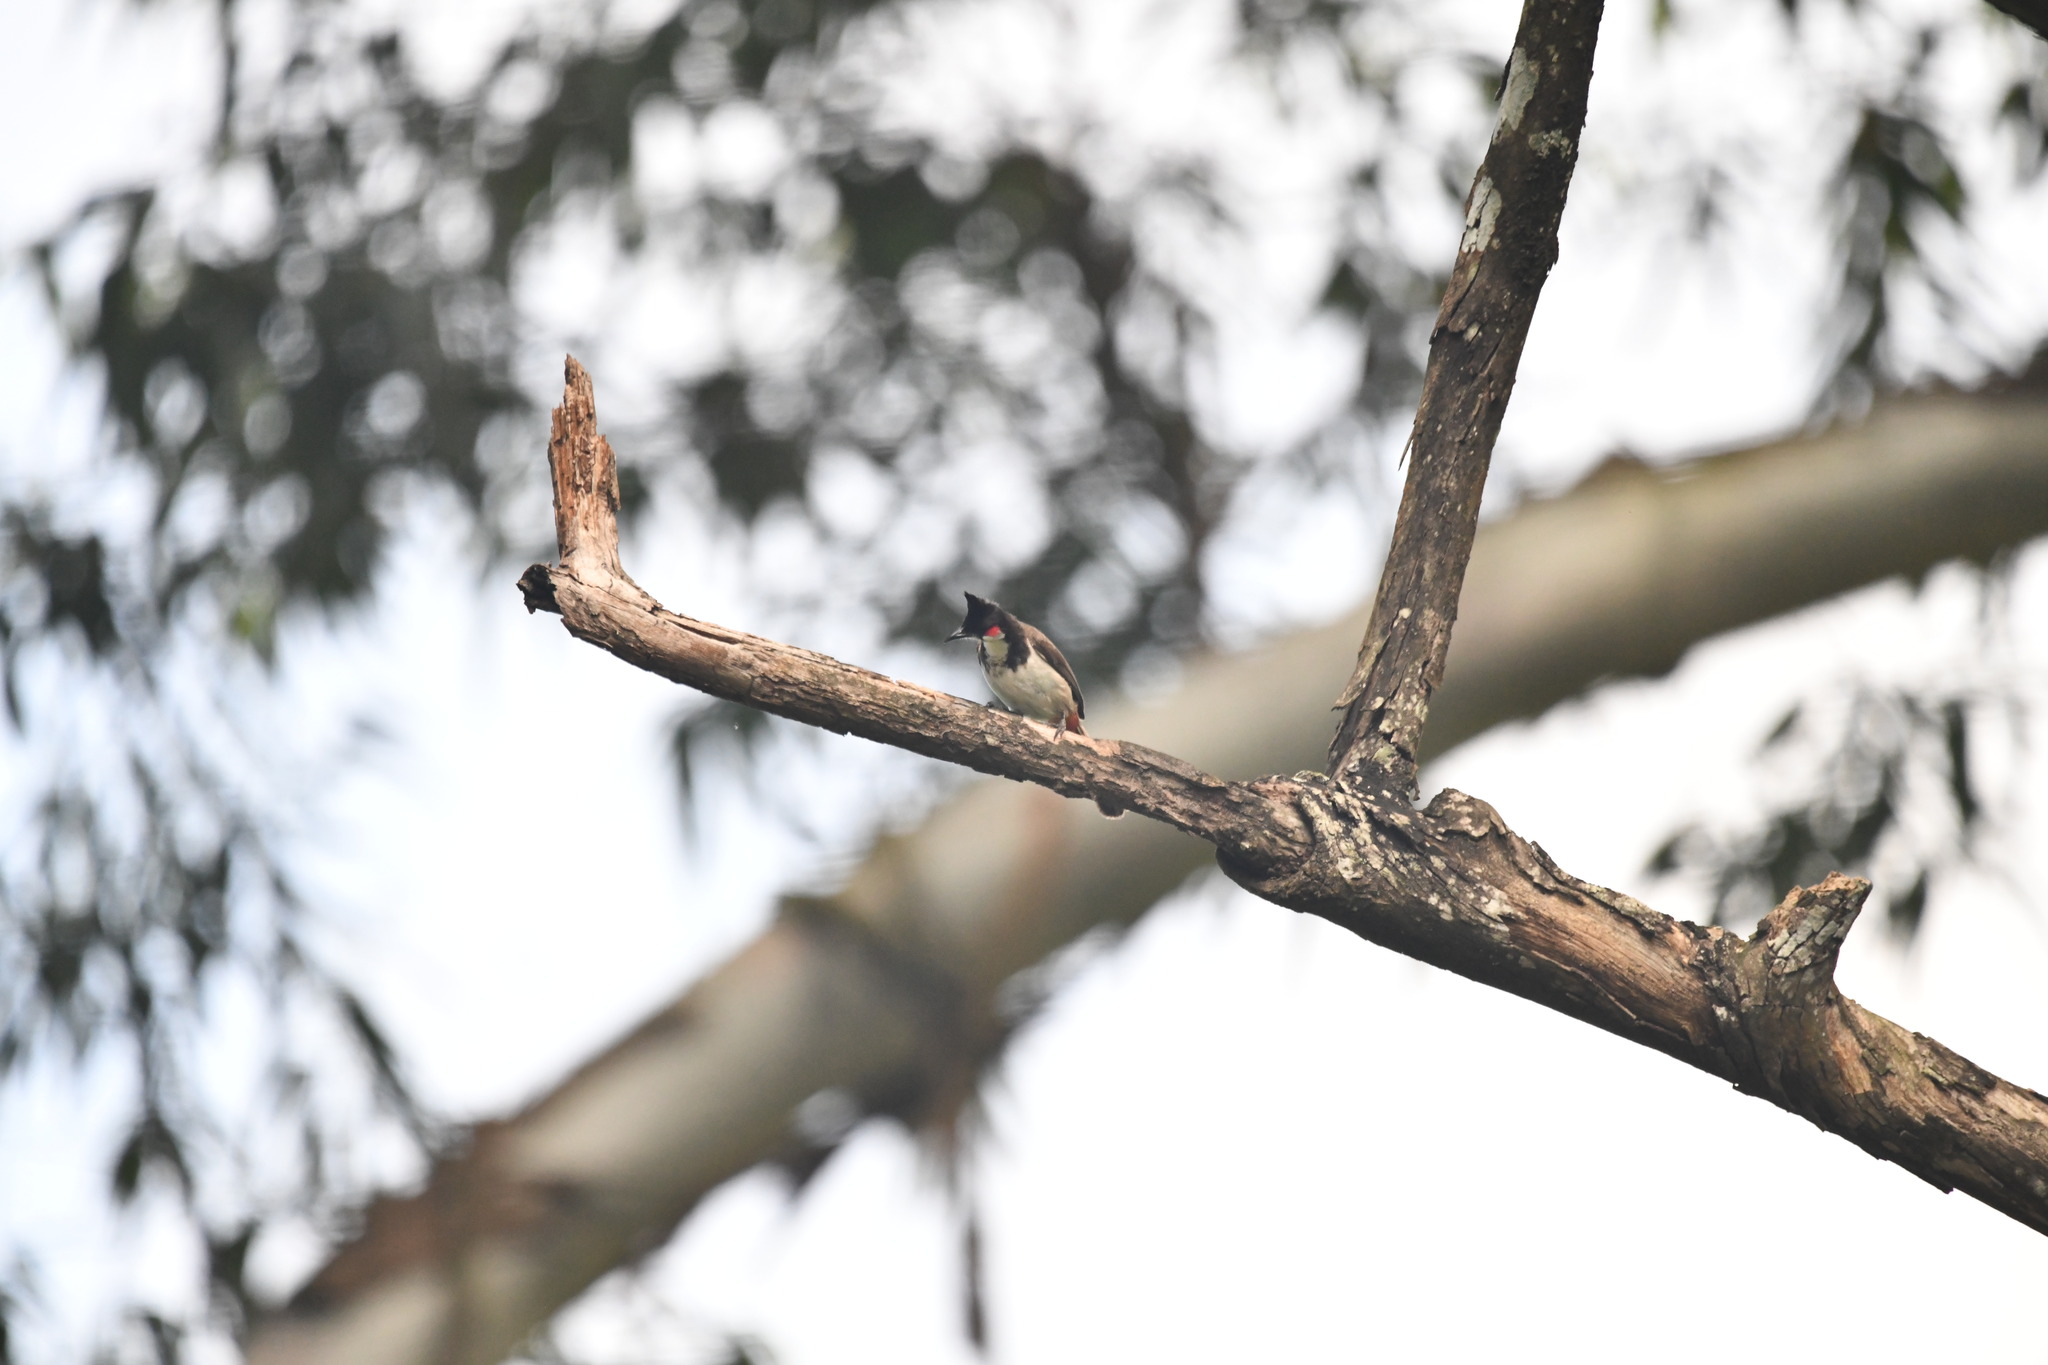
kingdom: Animalia
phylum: Chordata
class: Aves
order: Passeriformes
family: Pycnonotidae
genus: Pycnonotus
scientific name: Pycnonotus jocosus
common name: Red-whiskered bulbul
